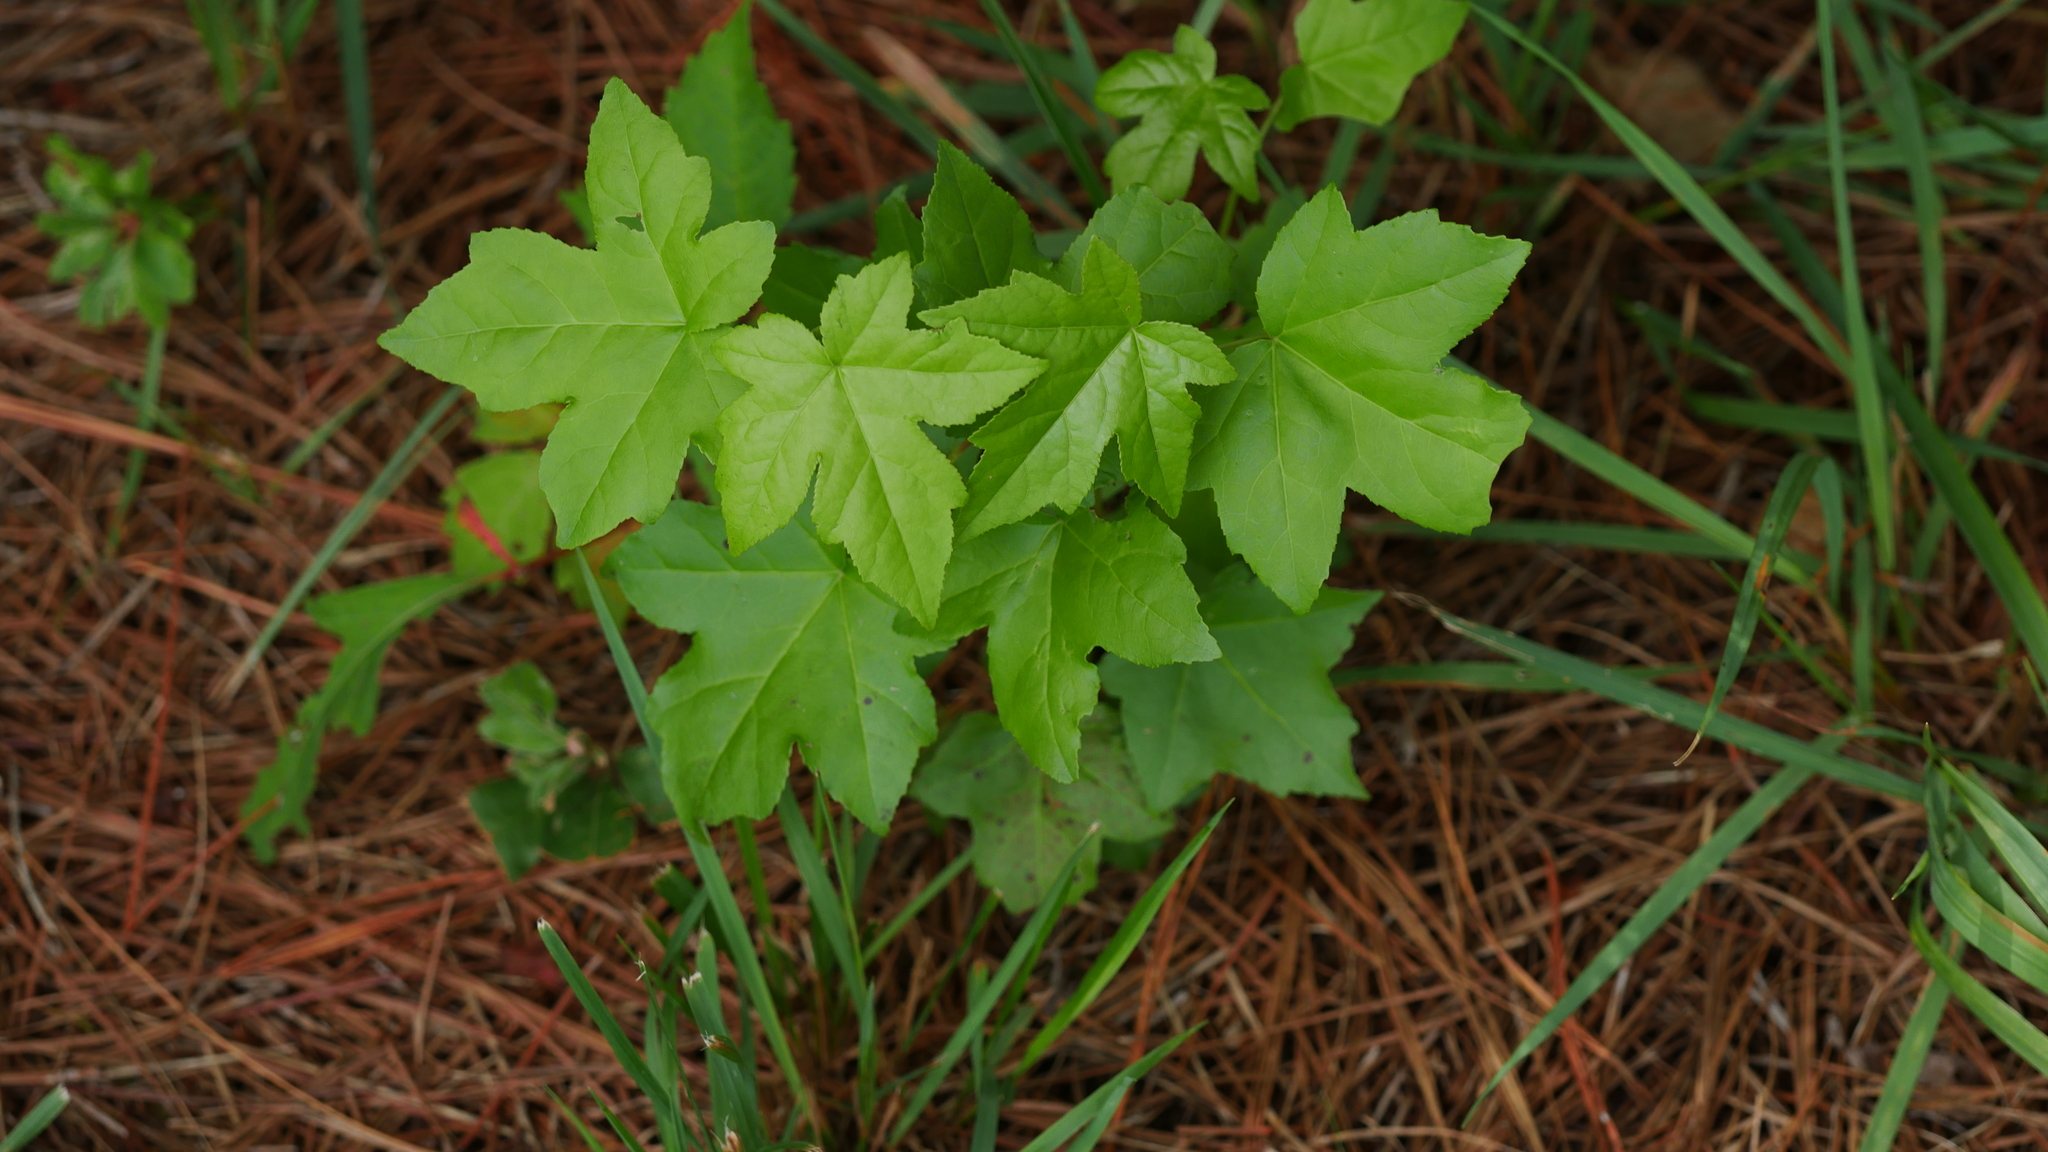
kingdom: Plantae
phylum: Tracheophyta
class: Magnoliopsida
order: Saxifragales
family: Altingiaceae
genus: Liquidambar
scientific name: Liquidambar styraciflua
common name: Sweet gum
